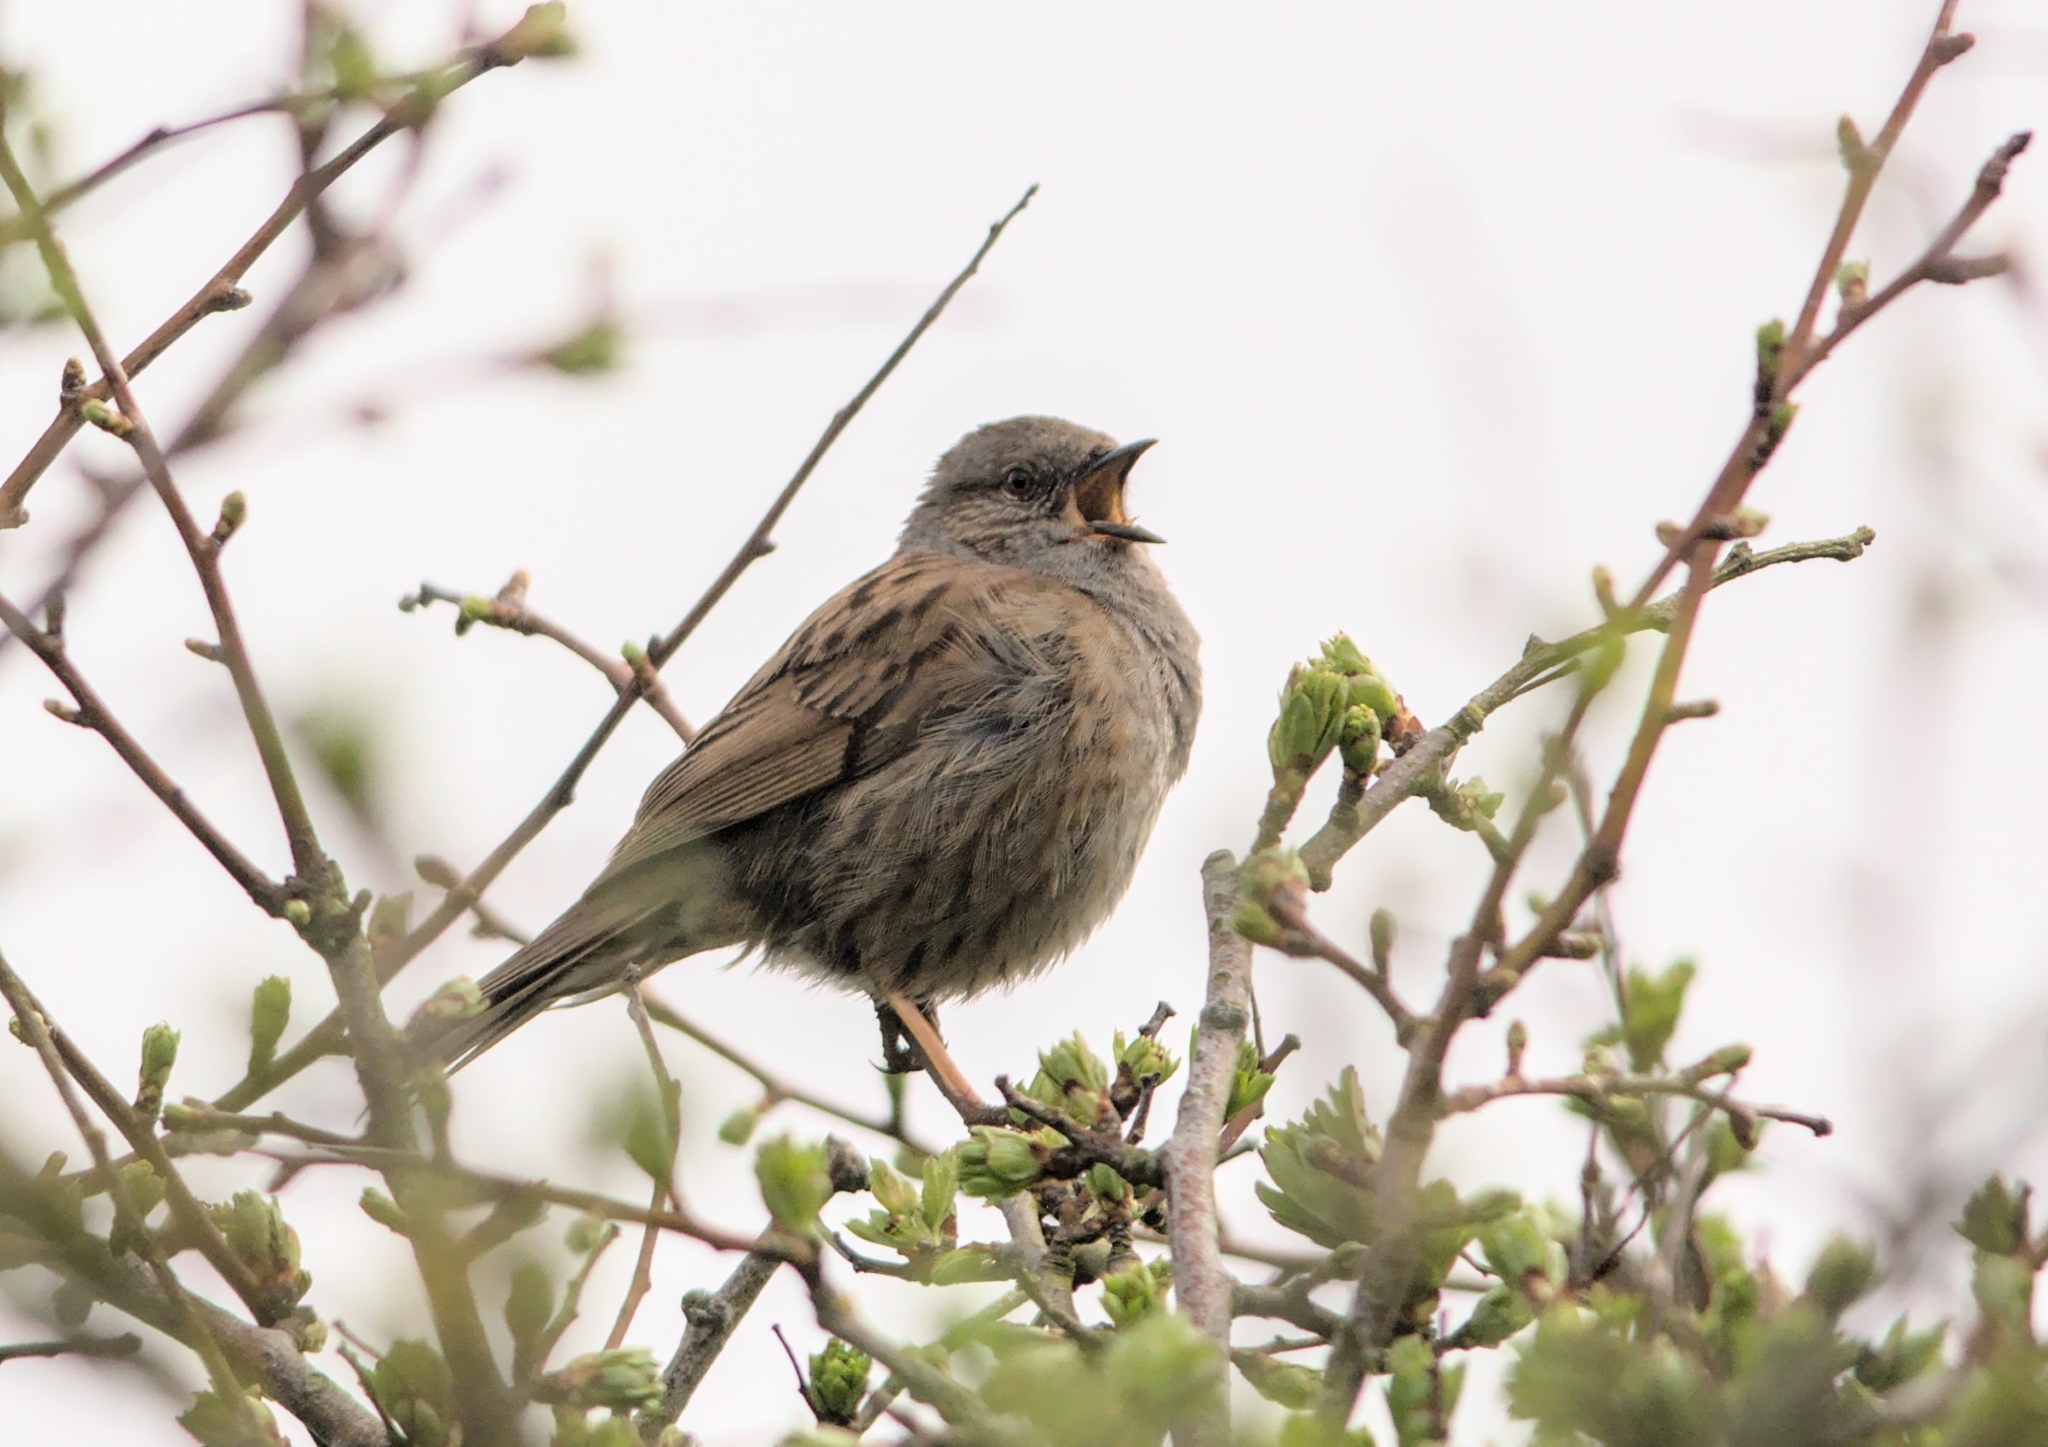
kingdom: Animalia
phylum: Chordata
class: Aves
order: Passeriformes
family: Prunellidae
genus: Prunella
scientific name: Prunella modularis
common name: Dunnock
